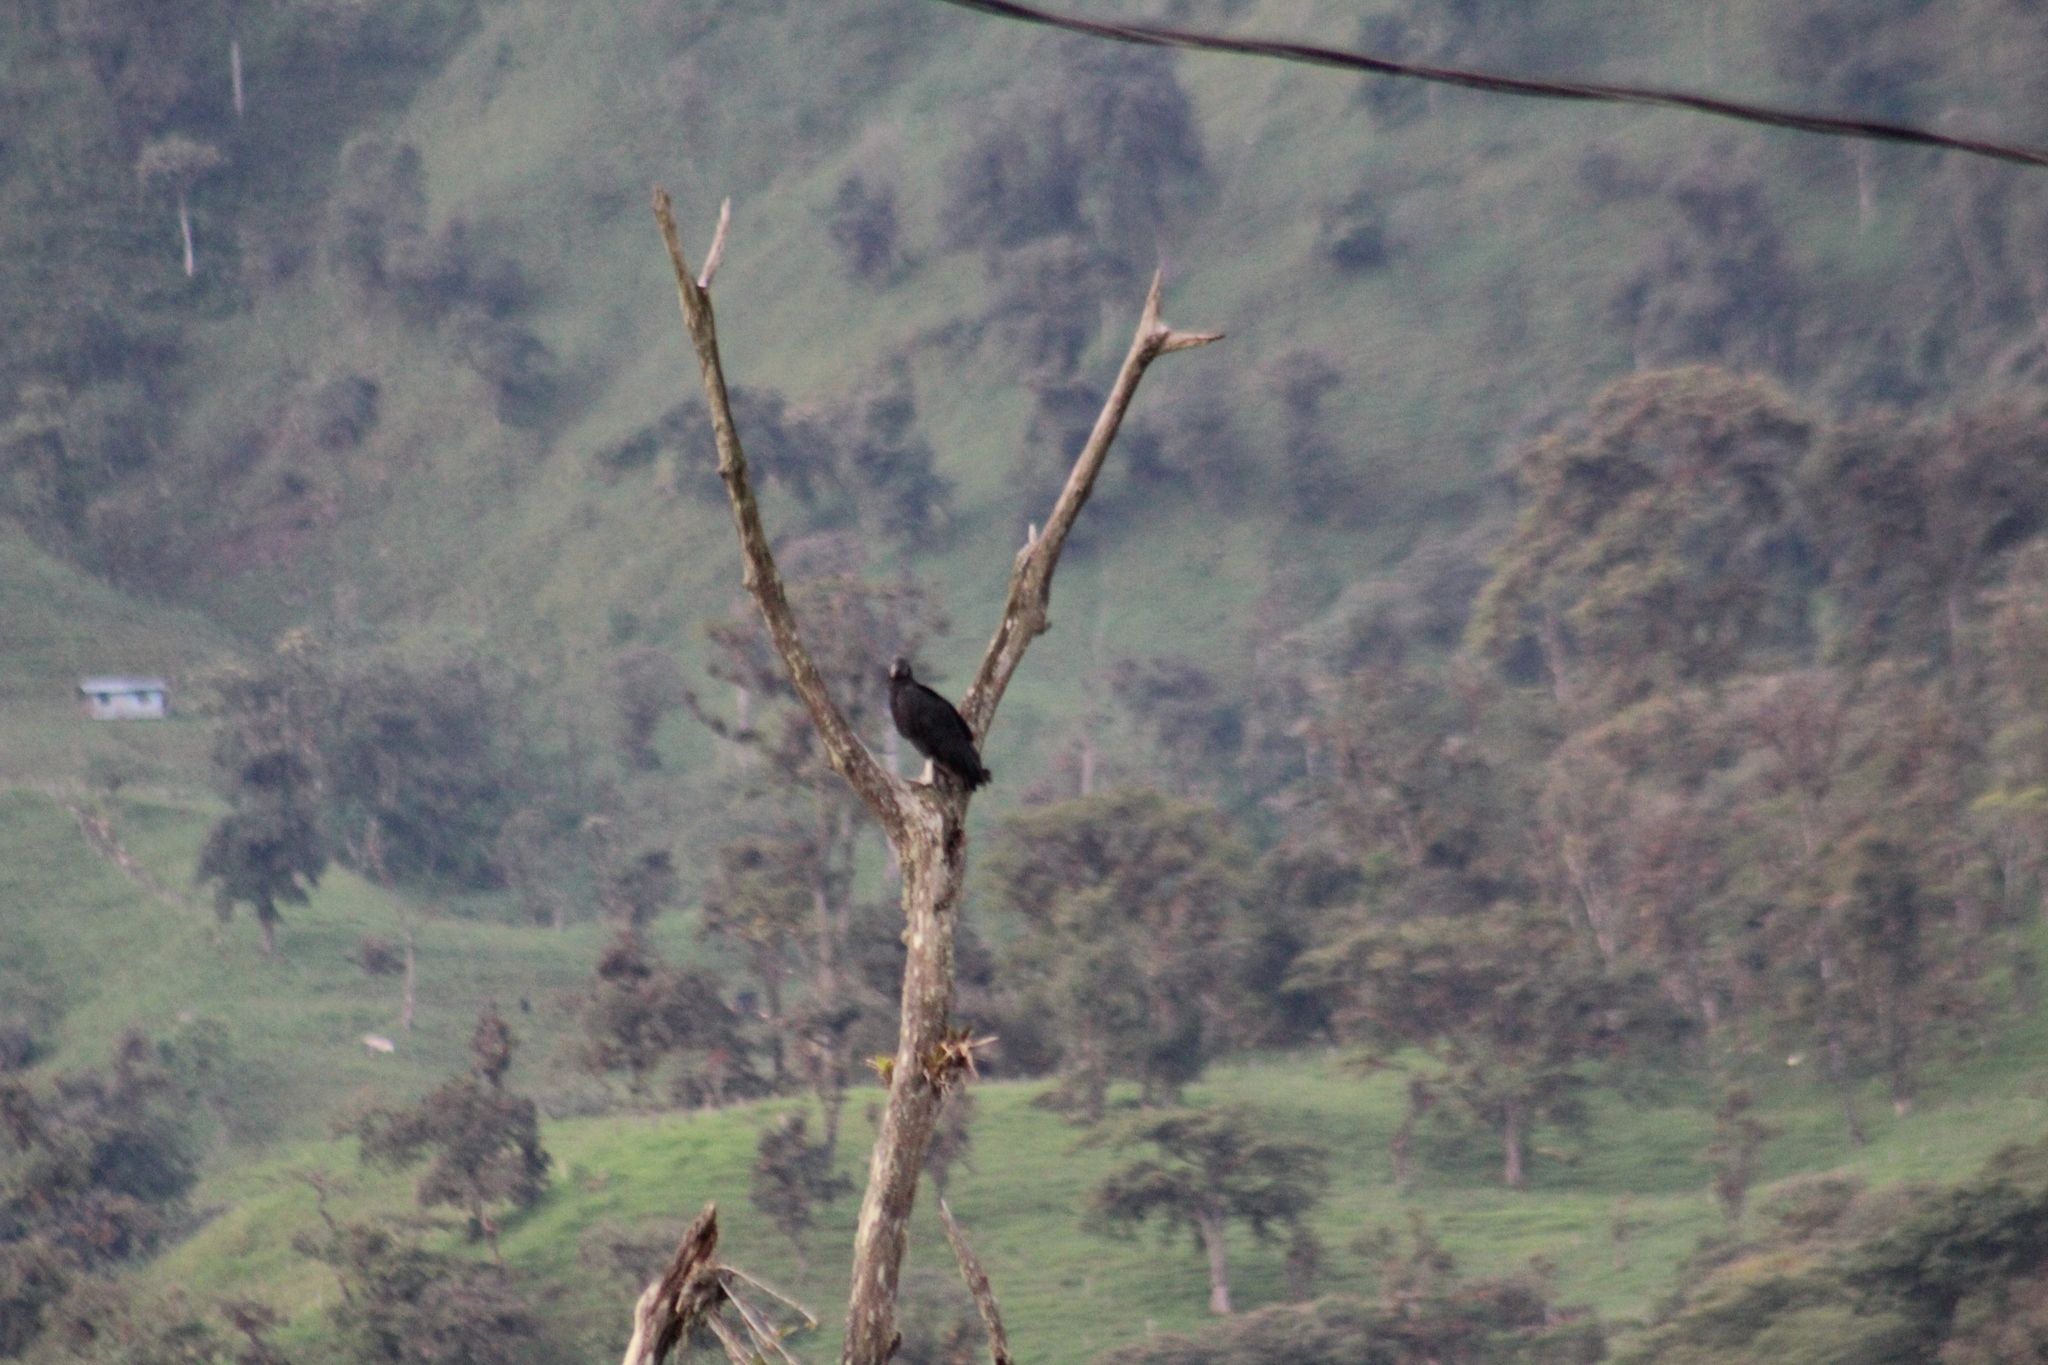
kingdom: Animalia
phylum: Chordata
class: Aves
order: Accipitriformes
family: Cathartidae
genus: Coragyps
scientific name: Coragyps atratus
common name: Black vulture
